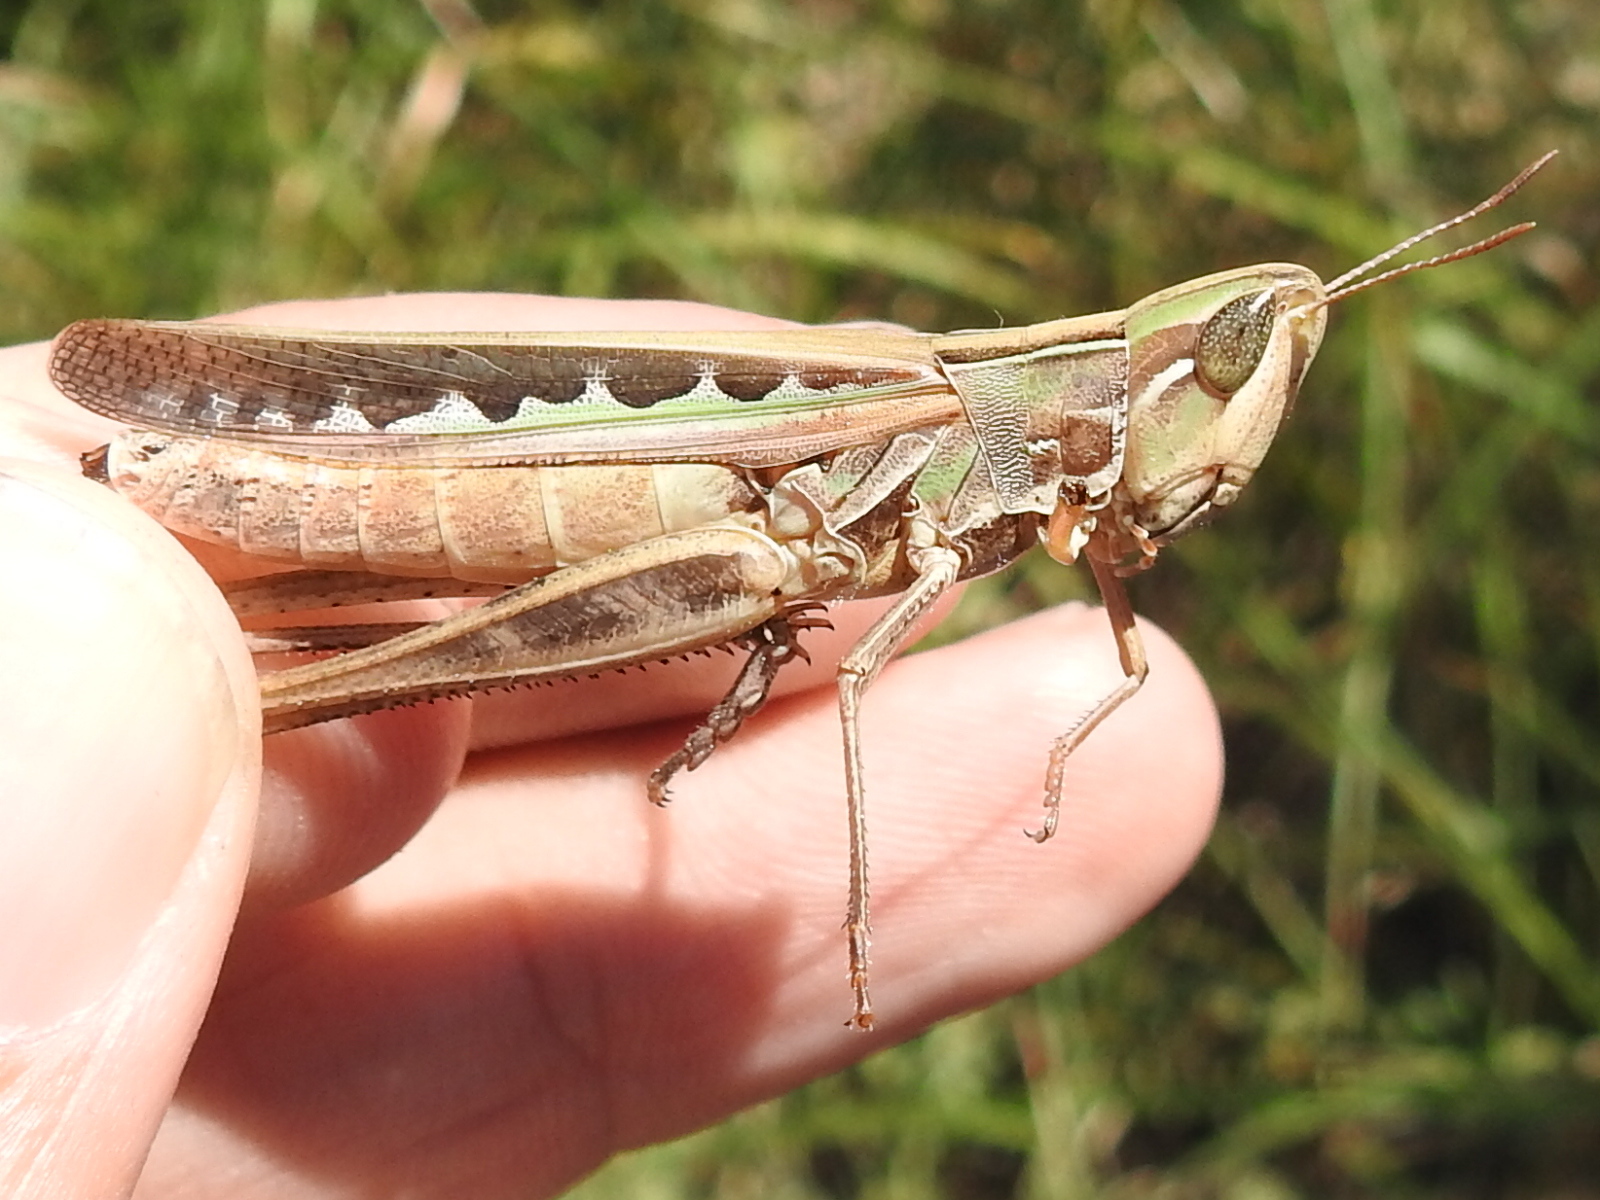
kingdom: Animalia
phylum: Arthropoda
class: Insecta
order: Orthoptera
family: Acrididae
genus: Syrbula
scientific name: Syrbula admirabilis
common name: Handsome grasshopper
